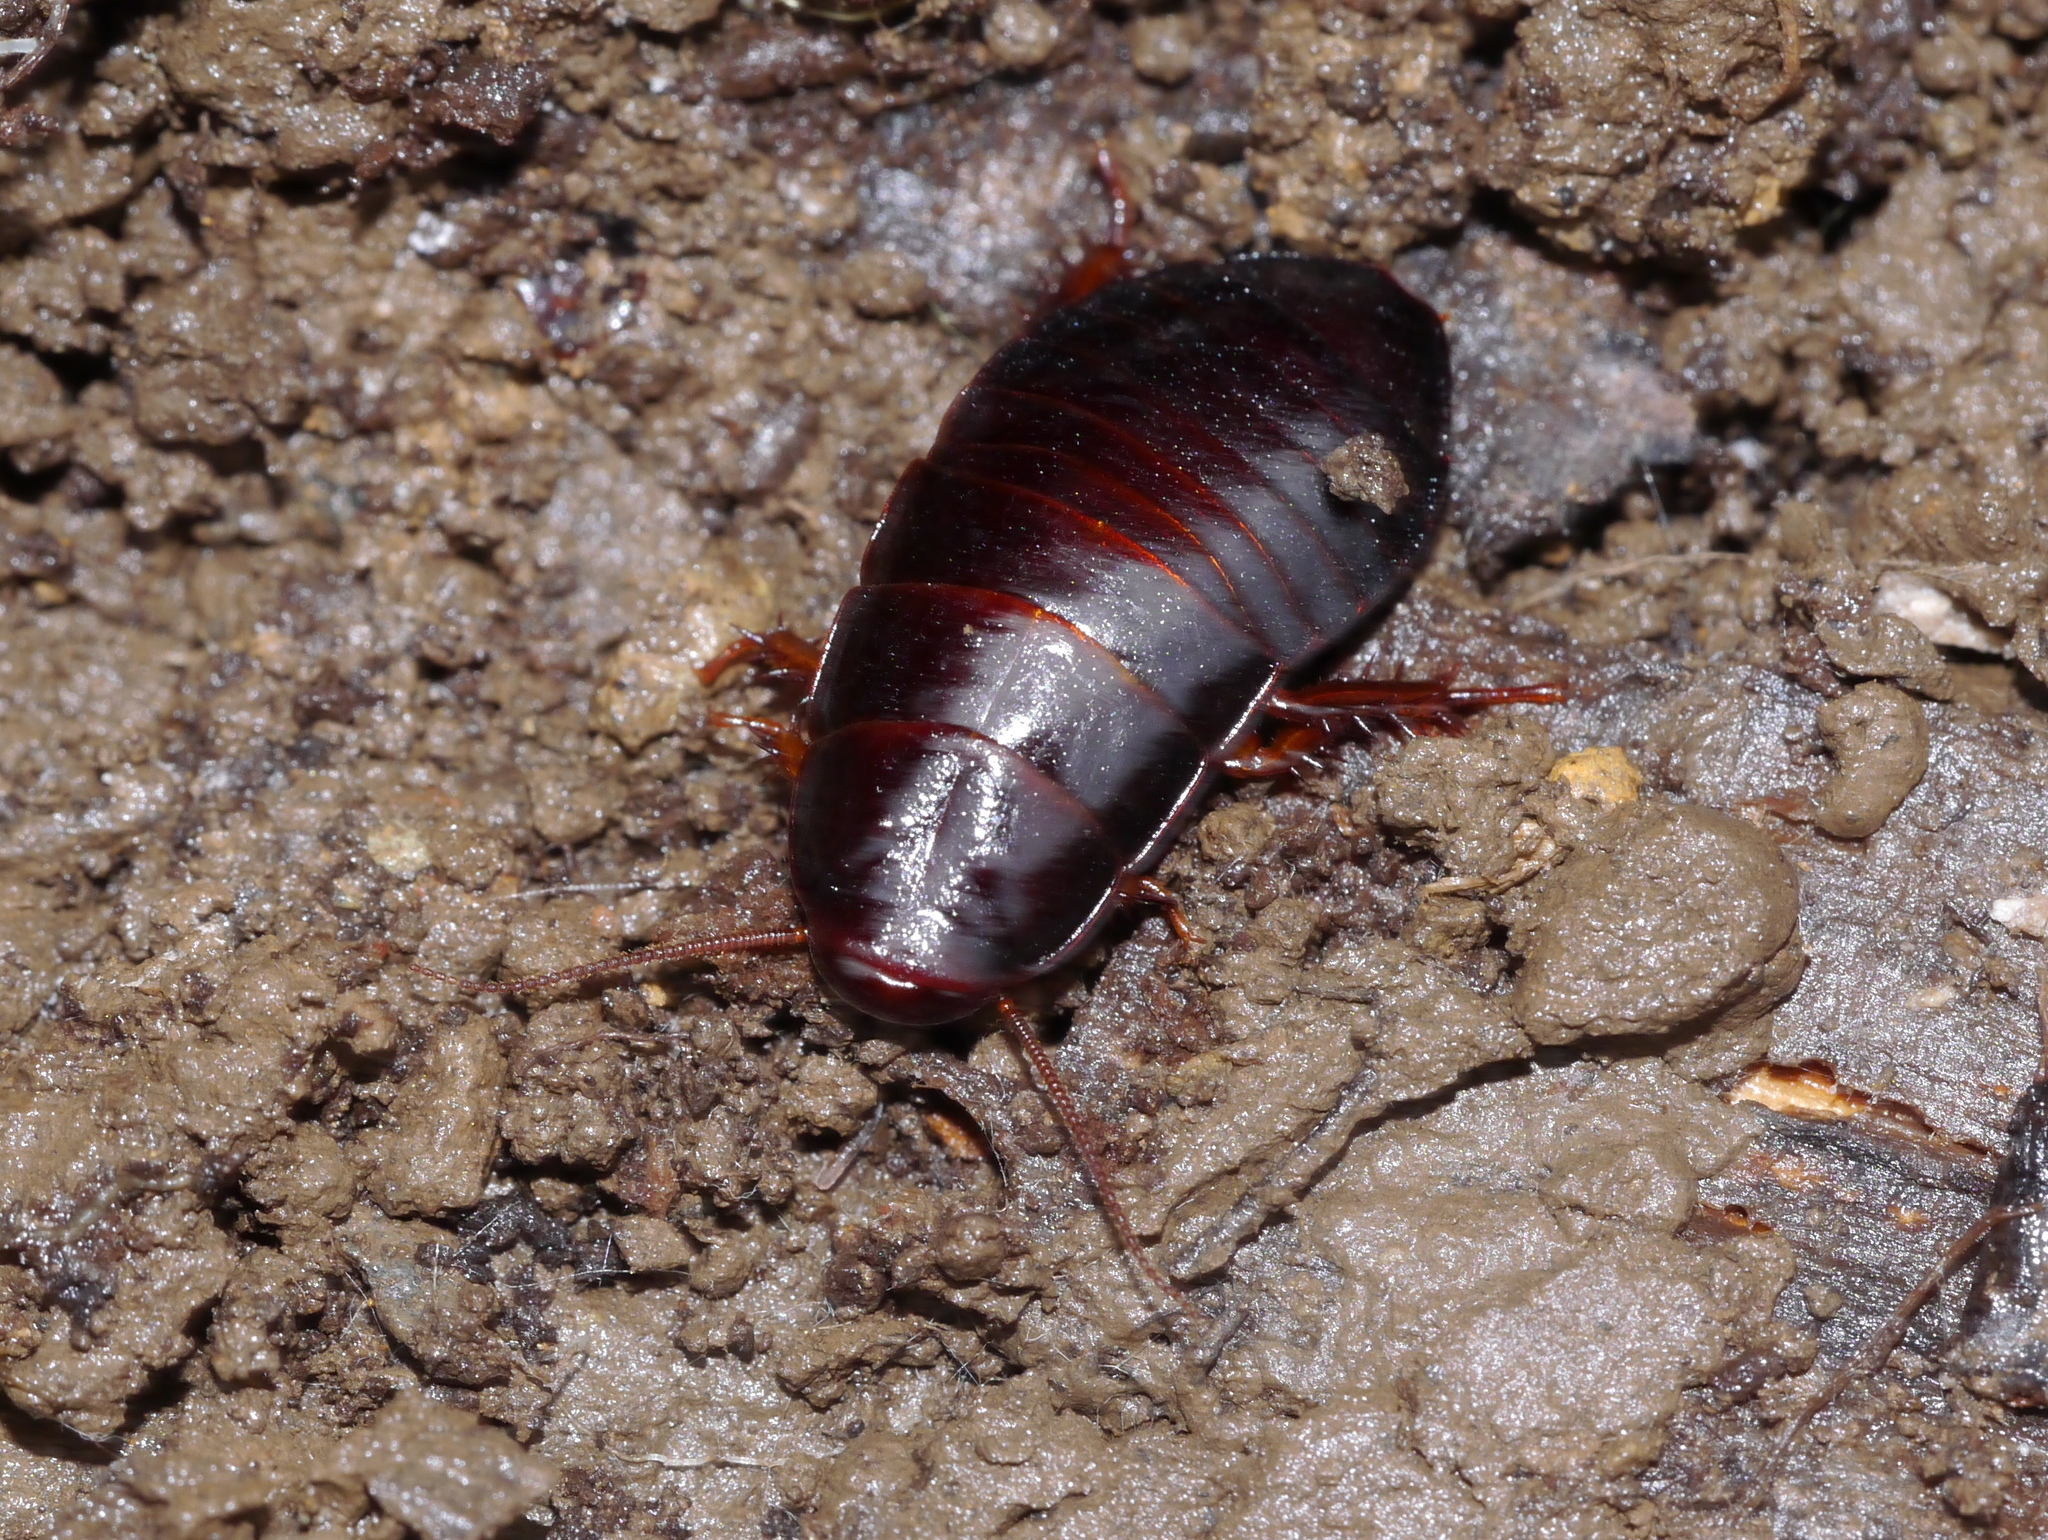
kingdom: Animalia
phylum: Arthropoda
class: Insecta
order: Blattodea
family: Cryptocercidae
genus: Cryptocercus
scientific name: Cryptocercus punctulatus
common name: Brown wingless cockroach
